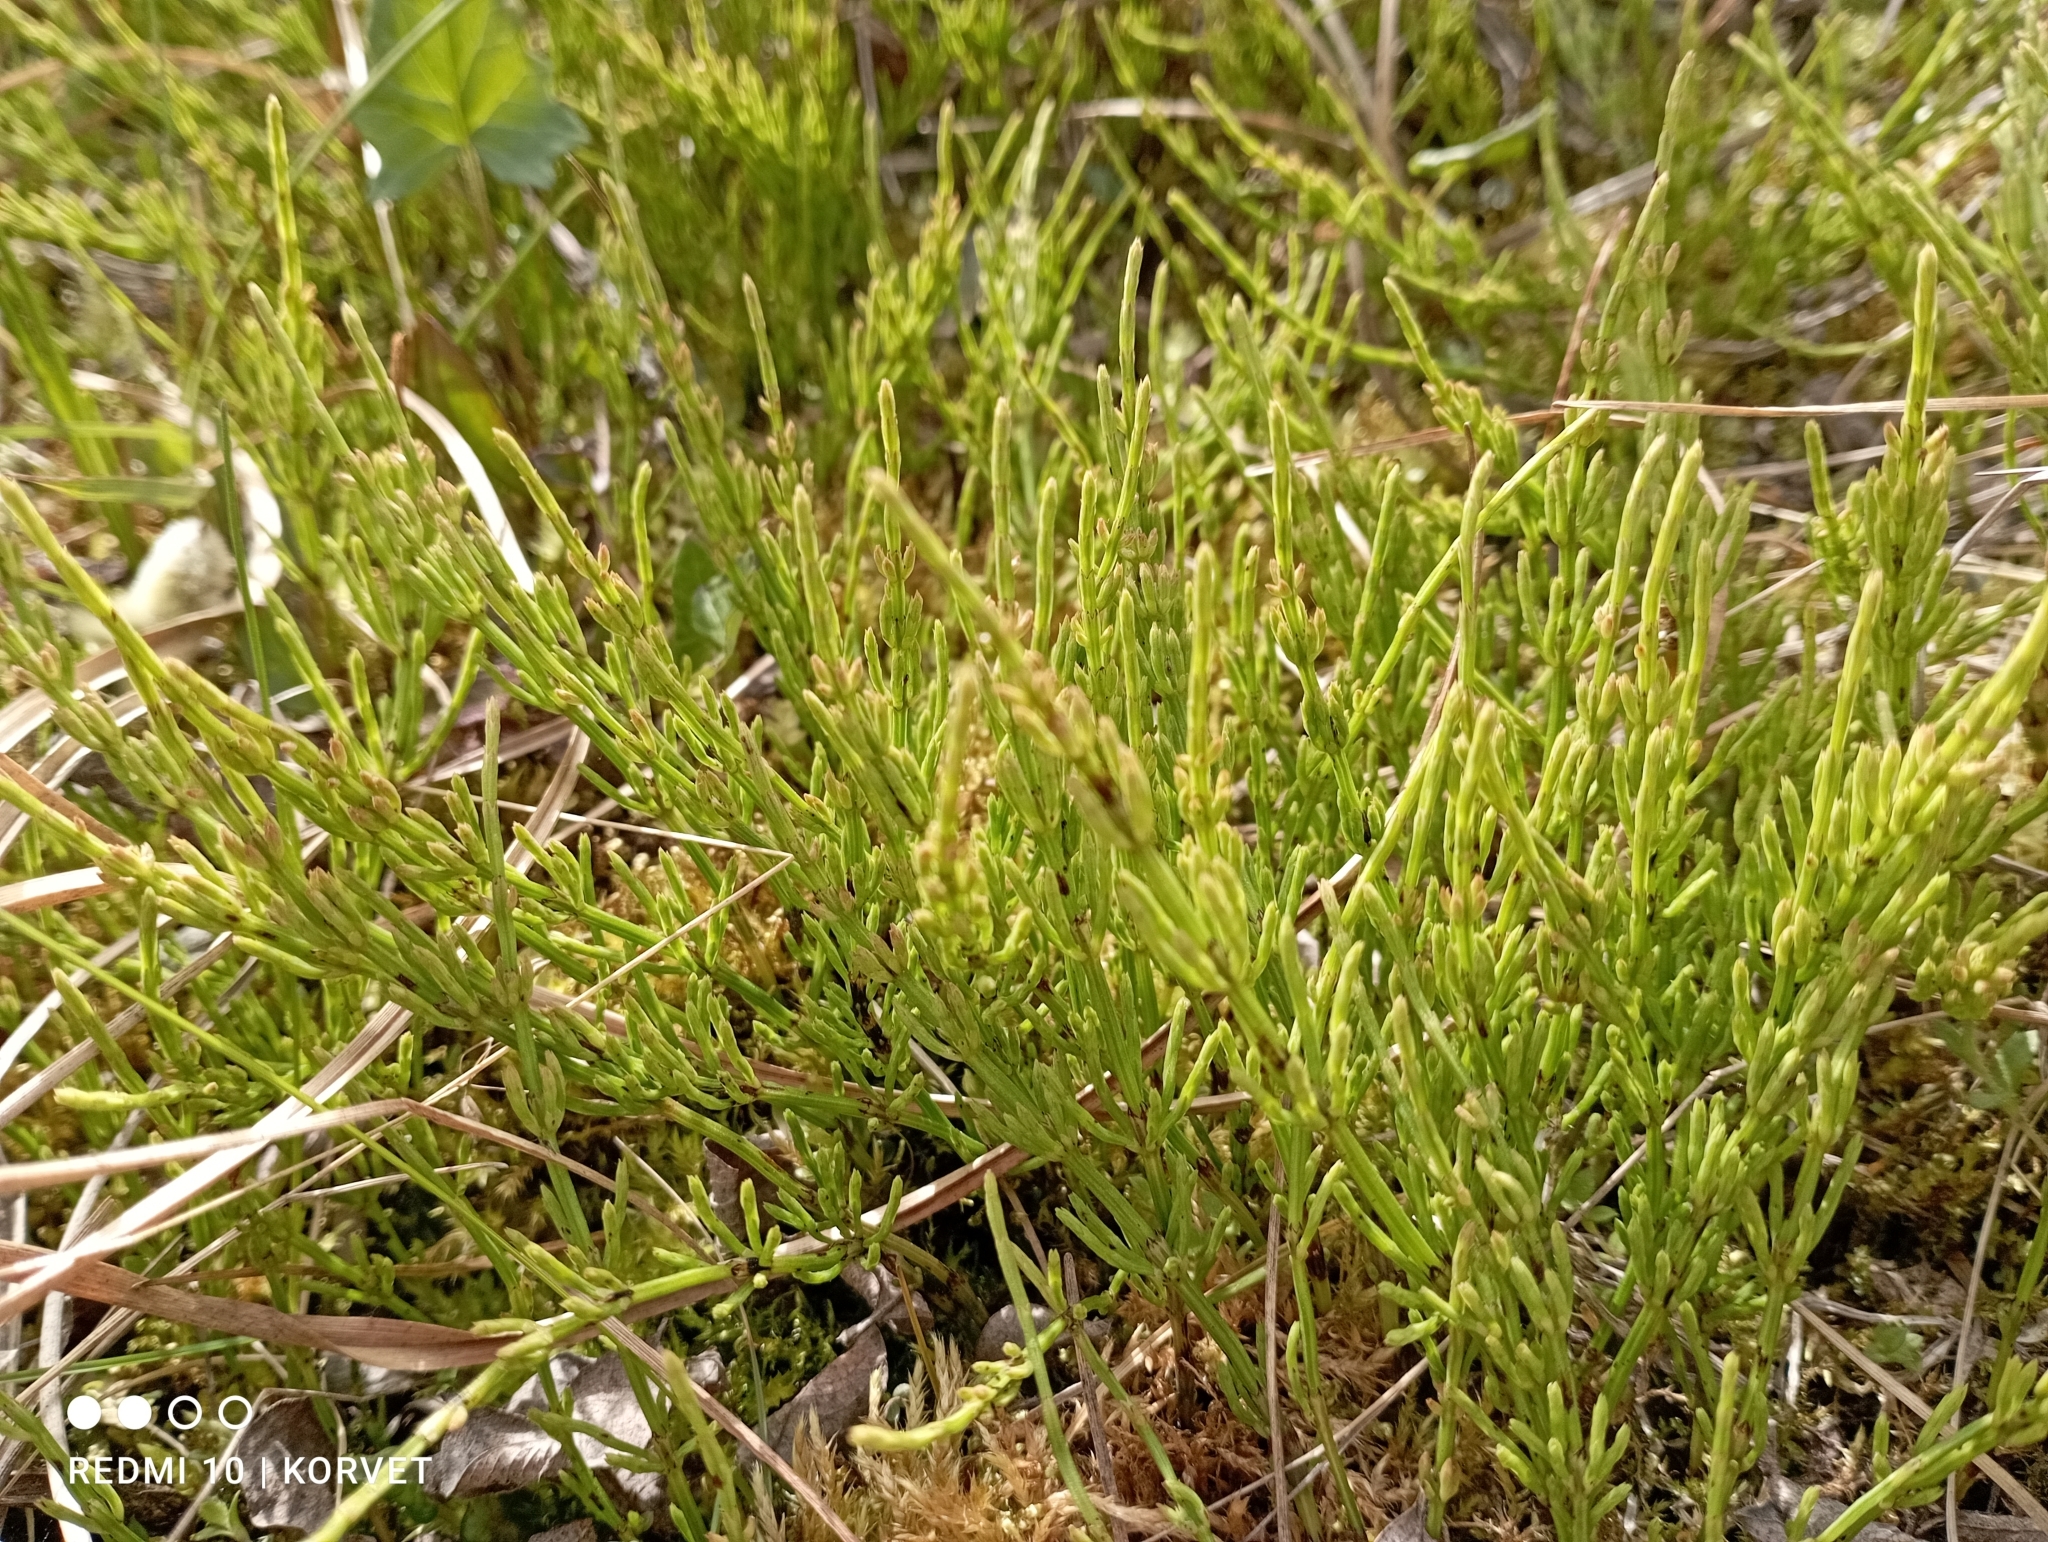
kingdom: Plantae
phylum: Tracheophyta
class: Polypodiopsida
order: Equisetales
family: Equisetaceae
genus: Equisetum
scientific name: Equisetum arvense
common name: Field horsetail
